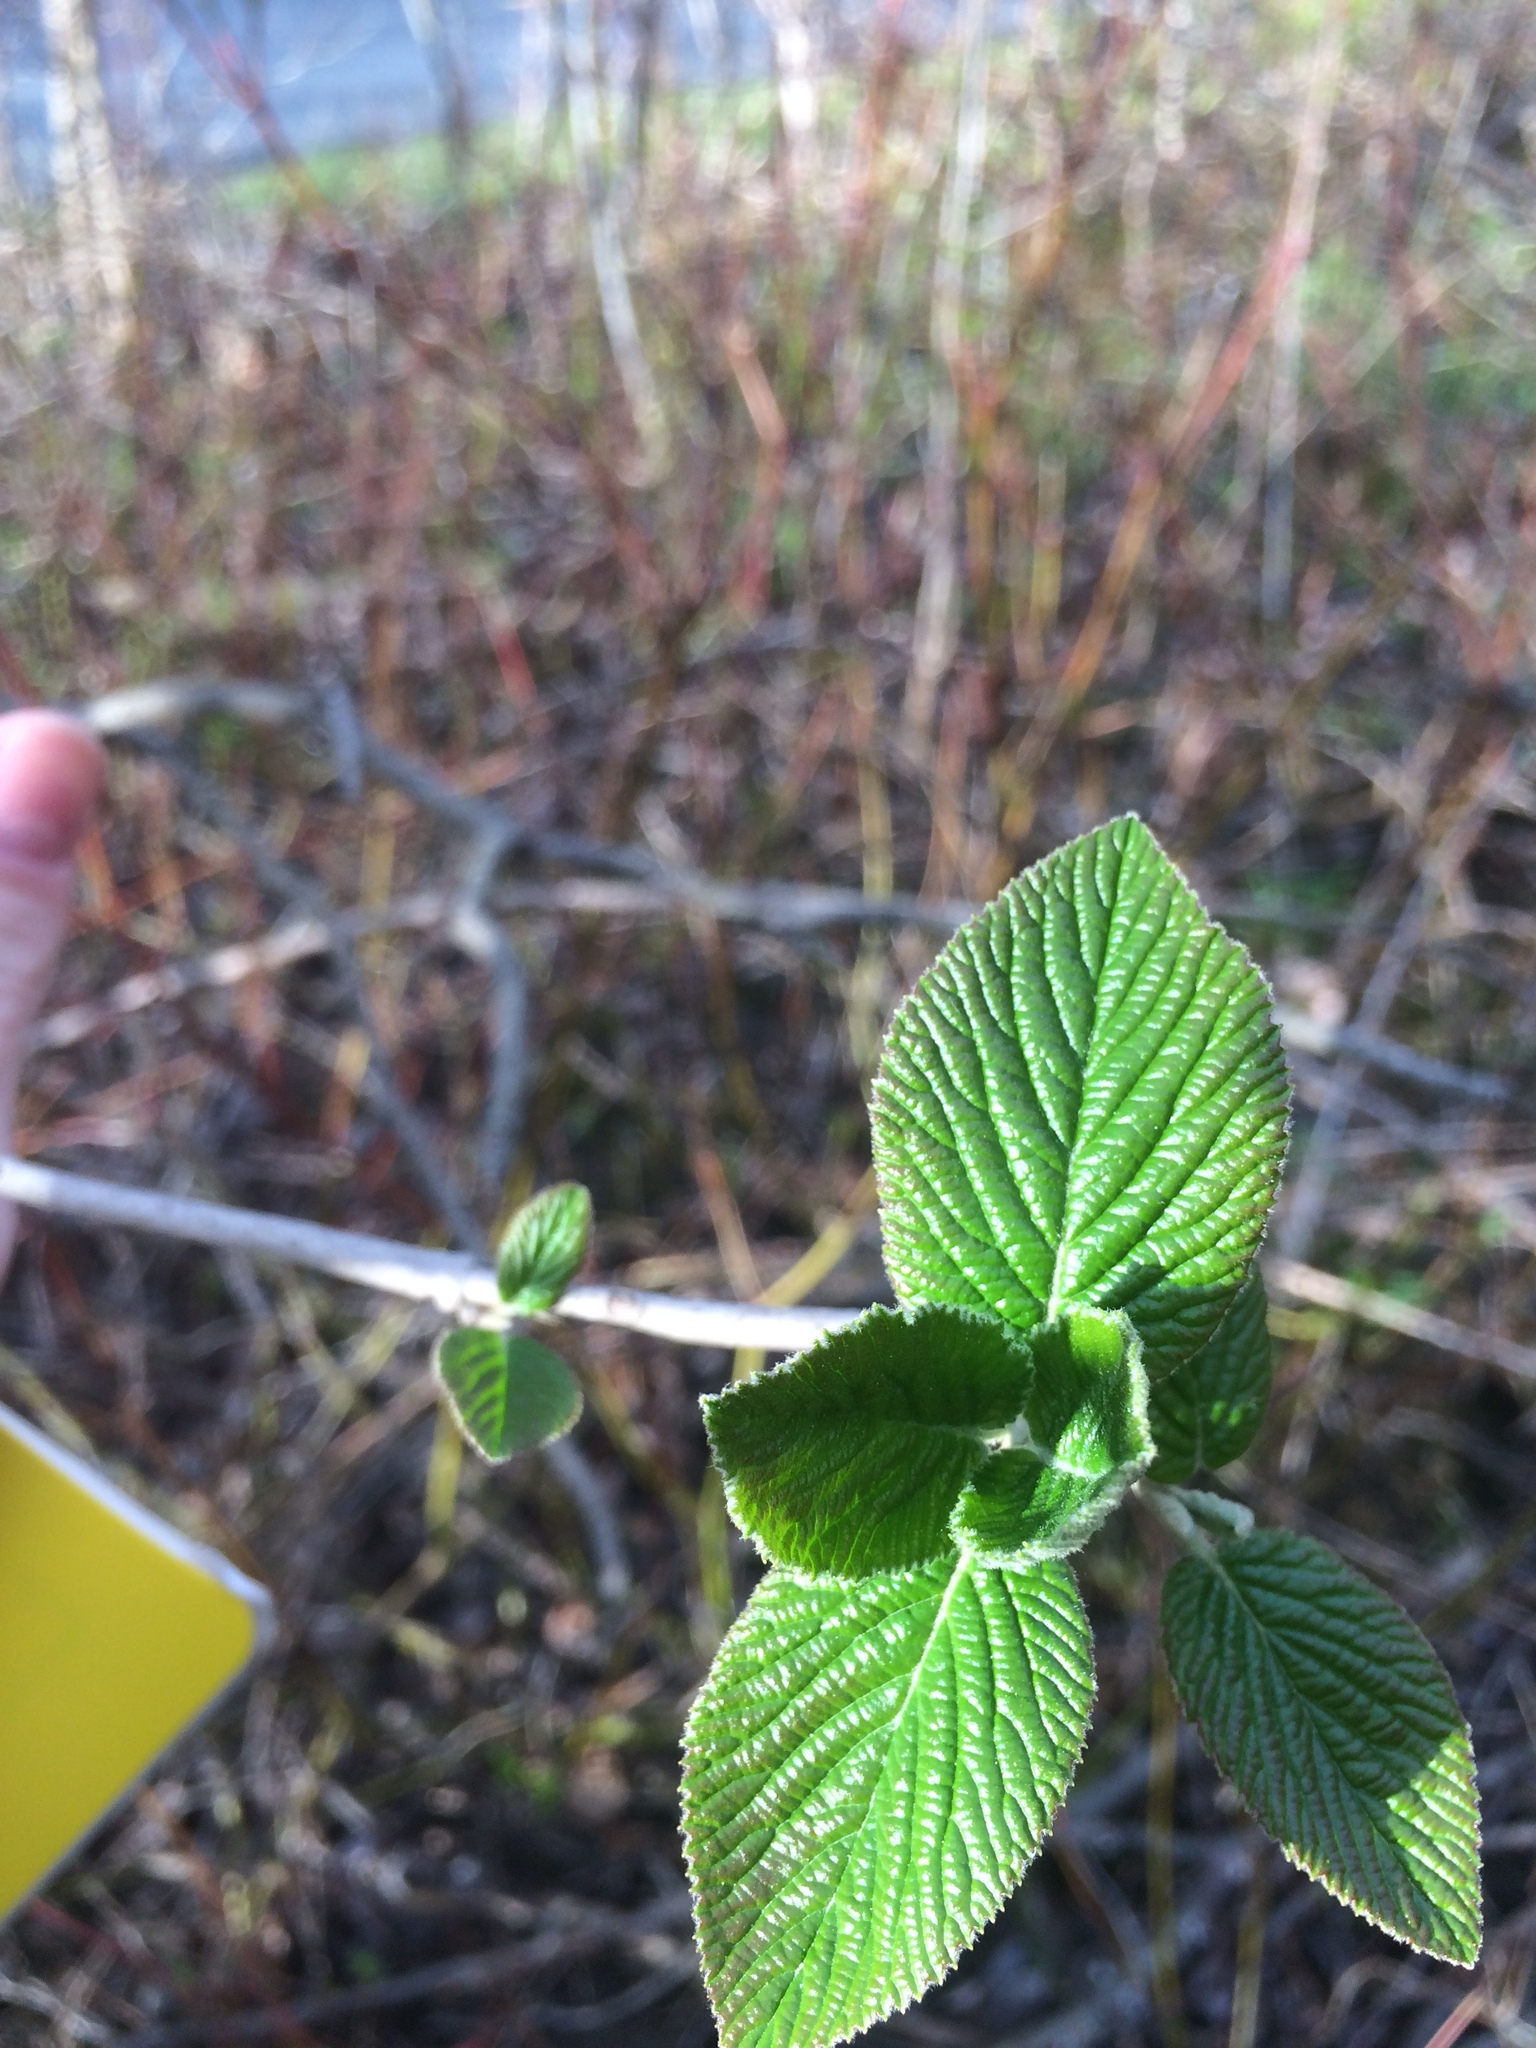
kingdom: Plantae
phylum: Tracheophyta
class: Magnoliopsida
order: Dipsacales
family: Viburnaceae
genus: Viburnum
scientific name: Viburnum lantana
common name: Wayfaring tree
